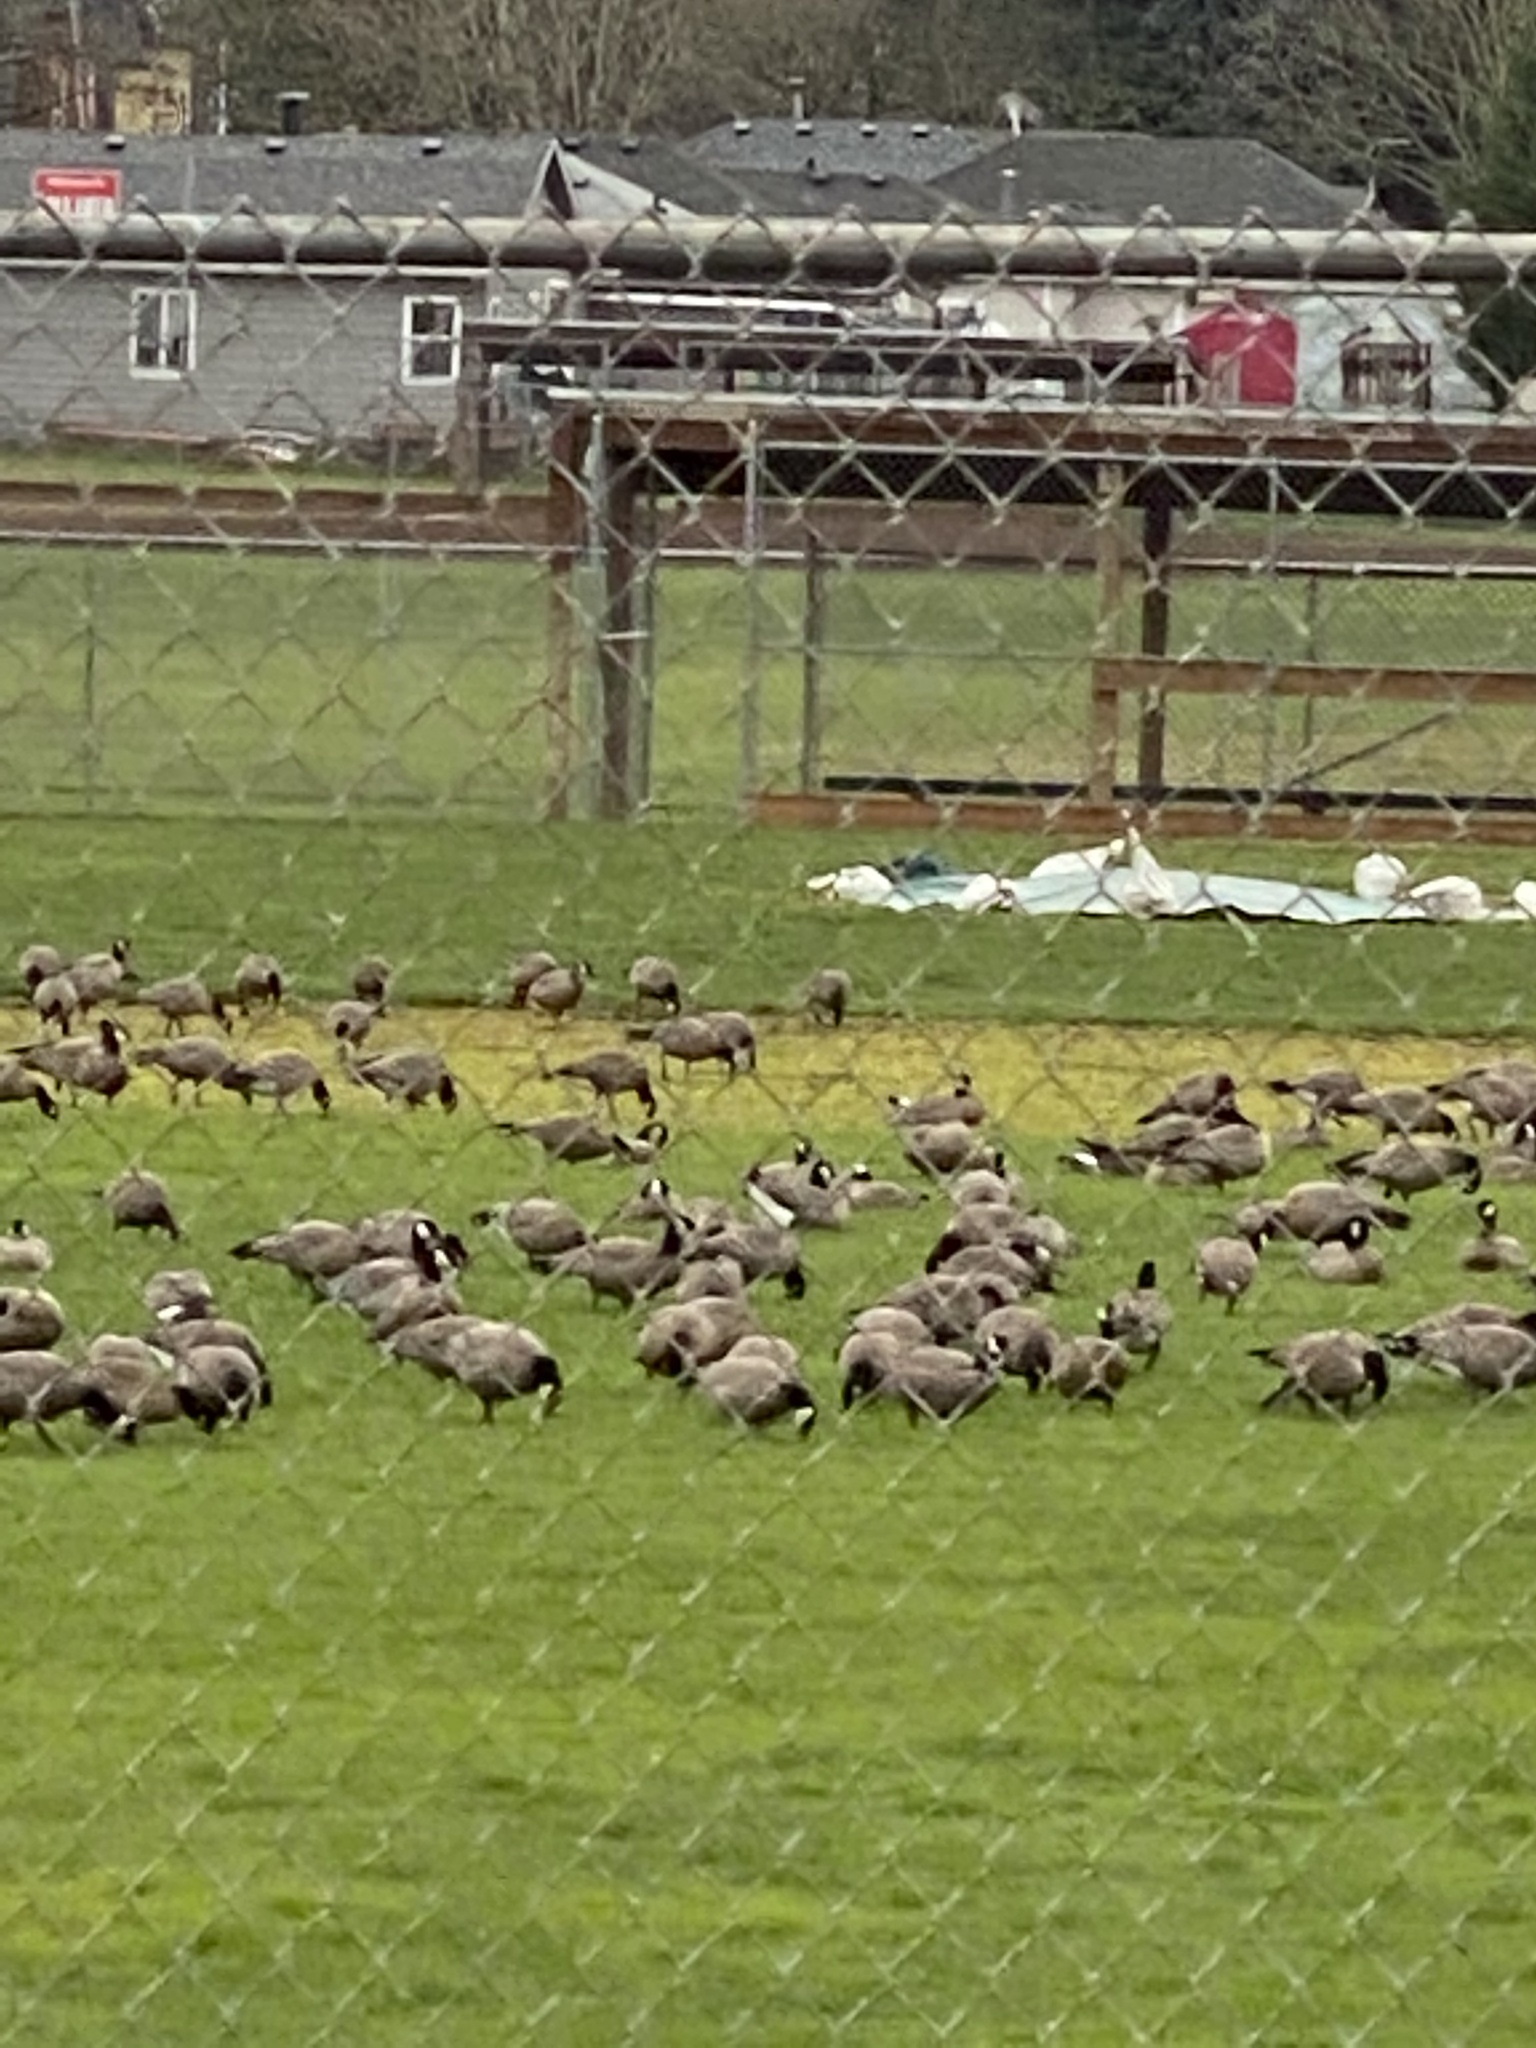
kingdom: Animalia
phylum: Chordata
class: Aves
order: Anseriformes
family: Anatidae
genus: Branta
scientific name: Branta hutchinsii
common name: Cackling goose
